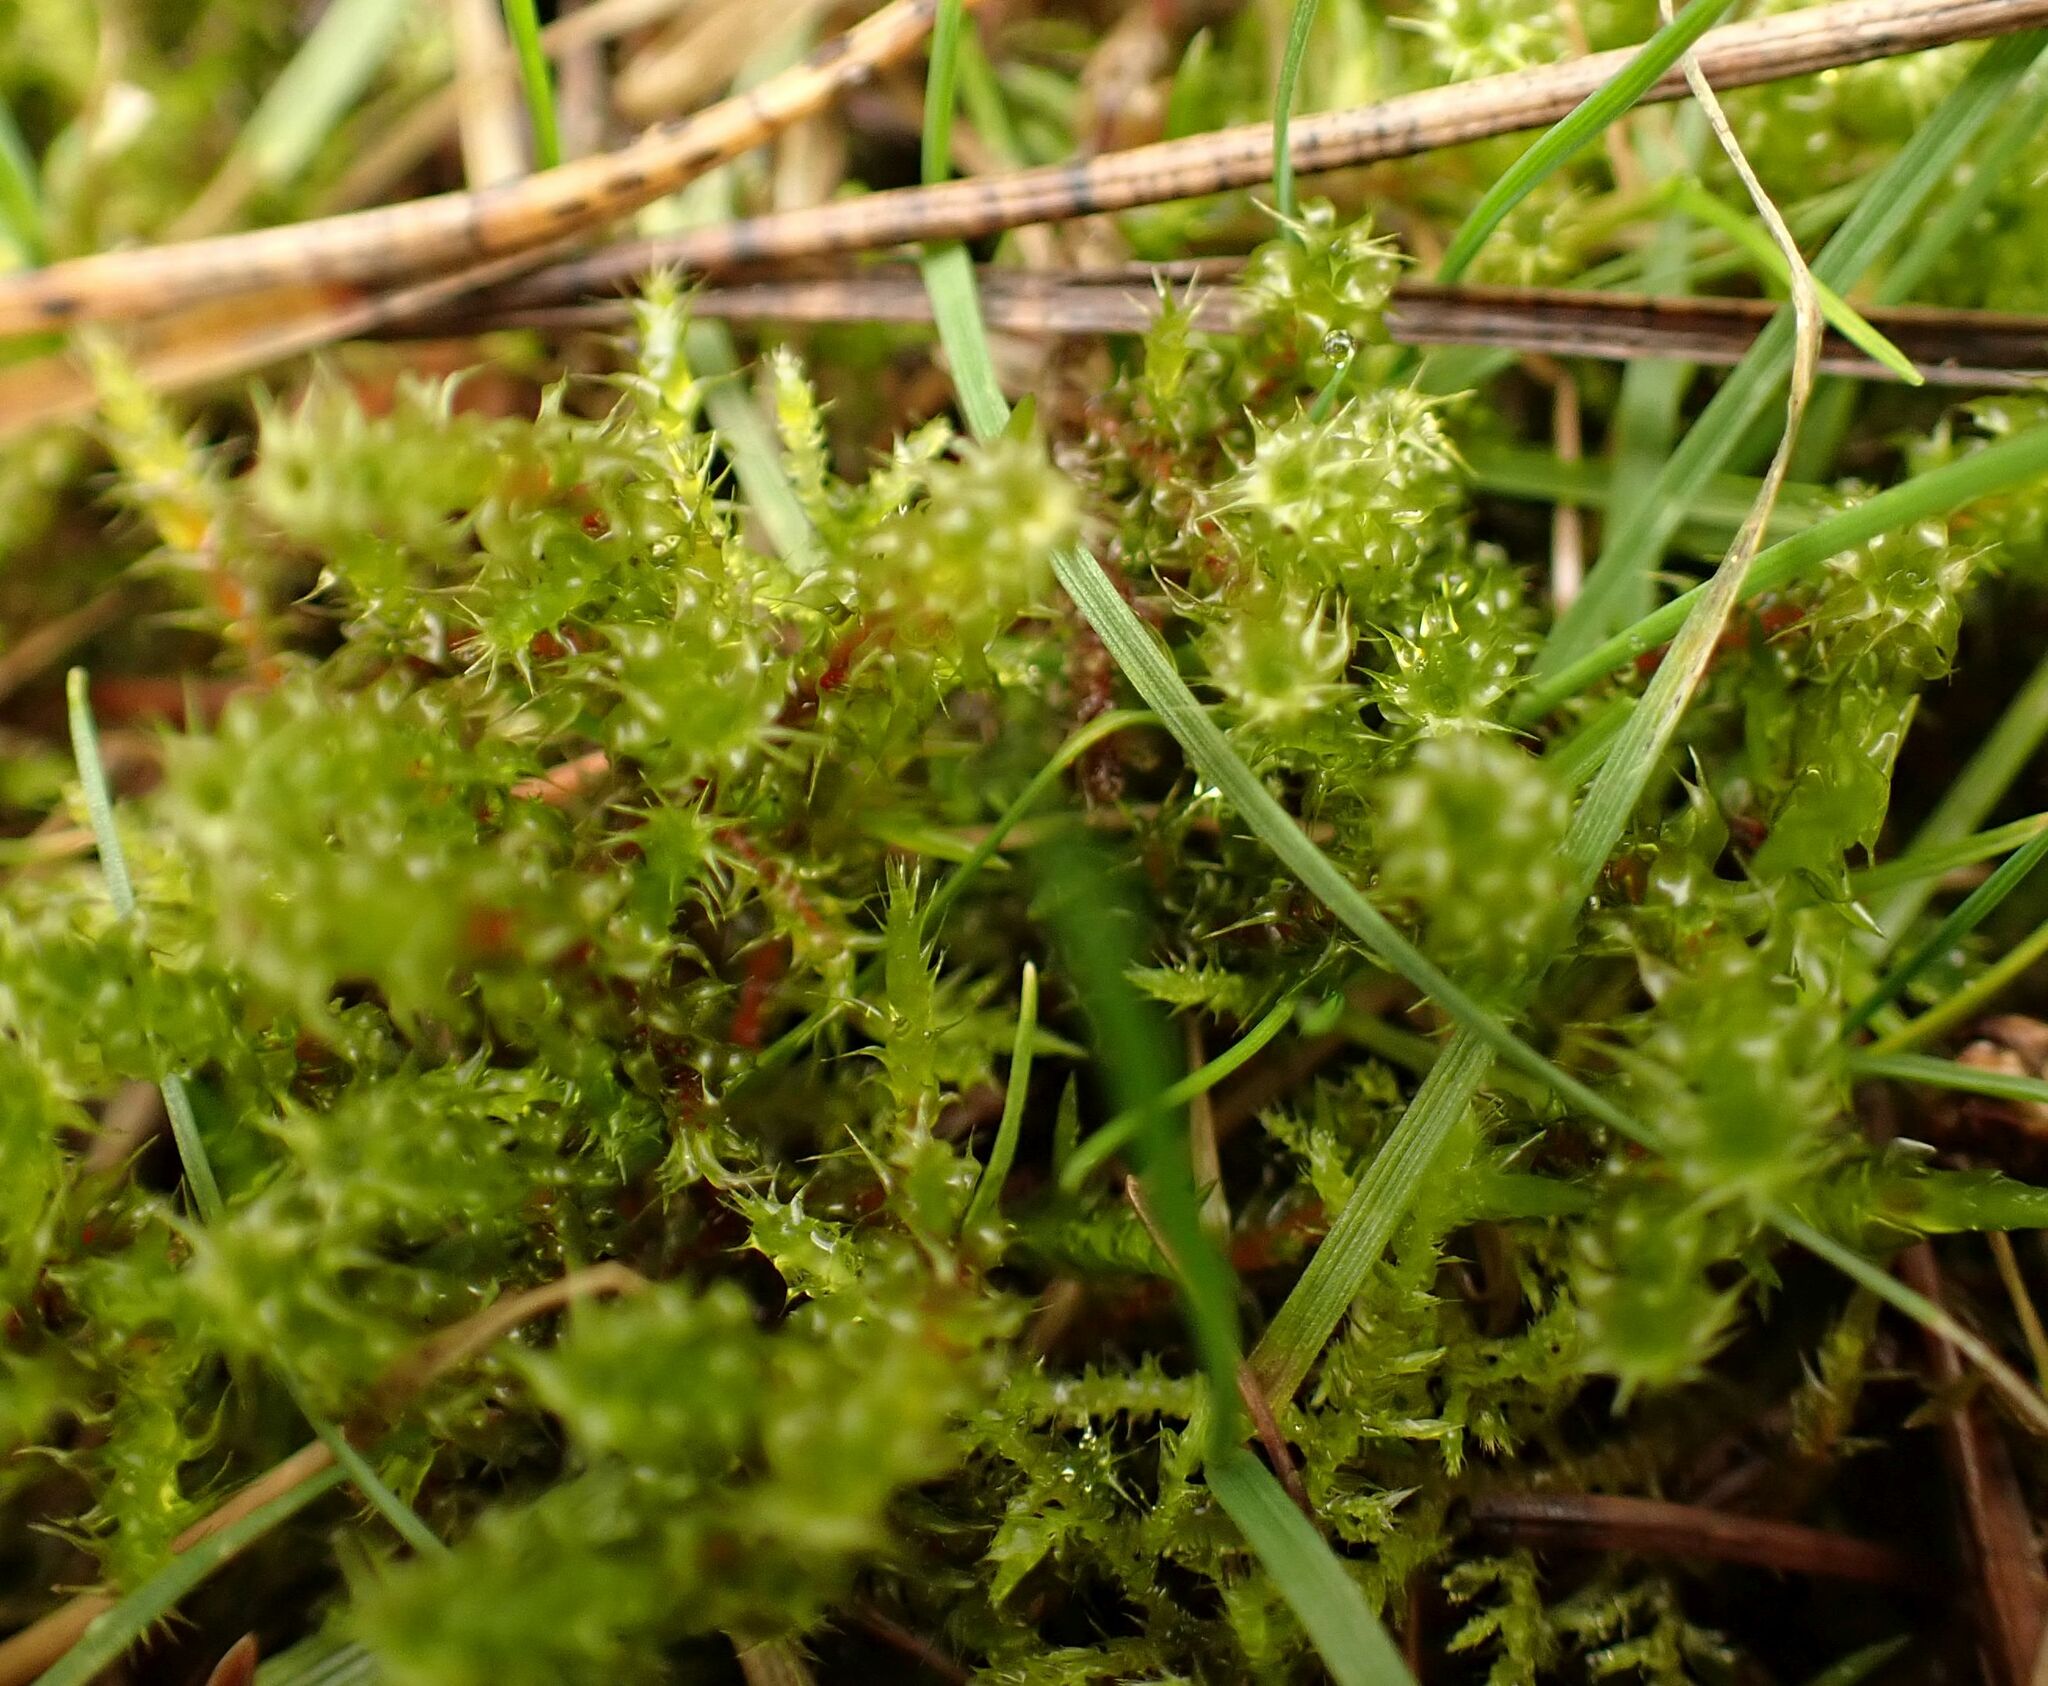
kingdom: Plantae
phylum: Bryophyta
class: Bryopsida
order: Hypnales
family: Hylocomiaceae
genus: Rhytidiadelphus
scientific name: Rhytidiadelphus squarrosus
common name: Springy turf-moss
